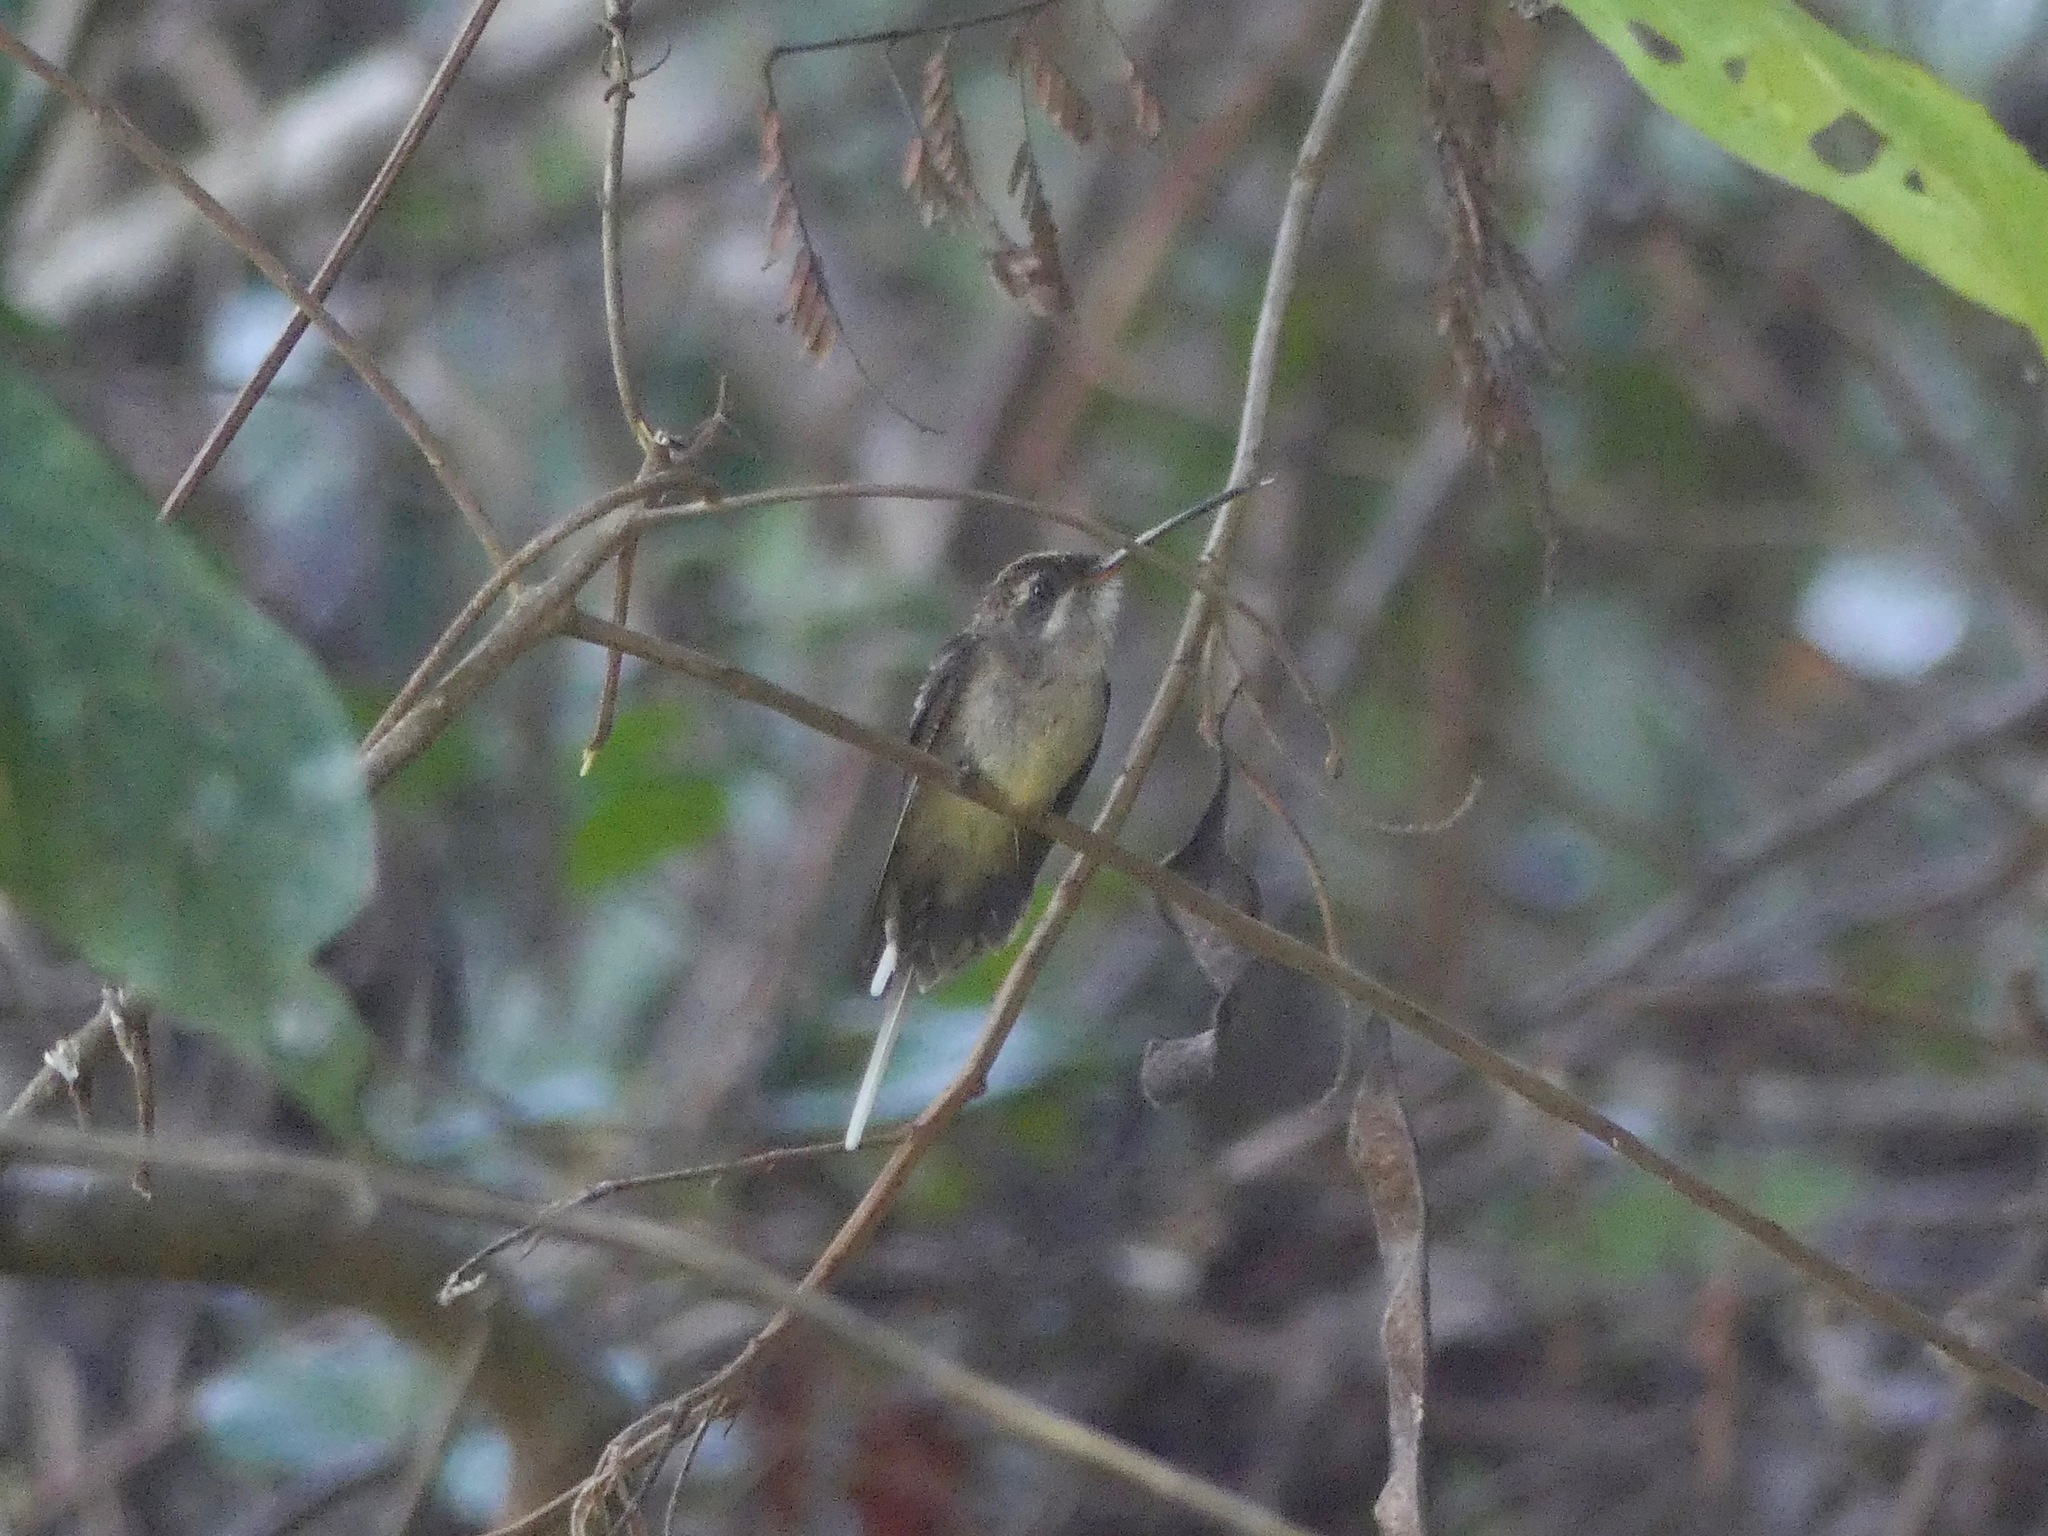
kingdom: Animalia
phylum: Chordata
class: Aves
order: Apodiformes
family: Trochilidae
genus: Phaethornis
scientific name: Phaethornis bourcieri
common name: Straight-billed hermit
